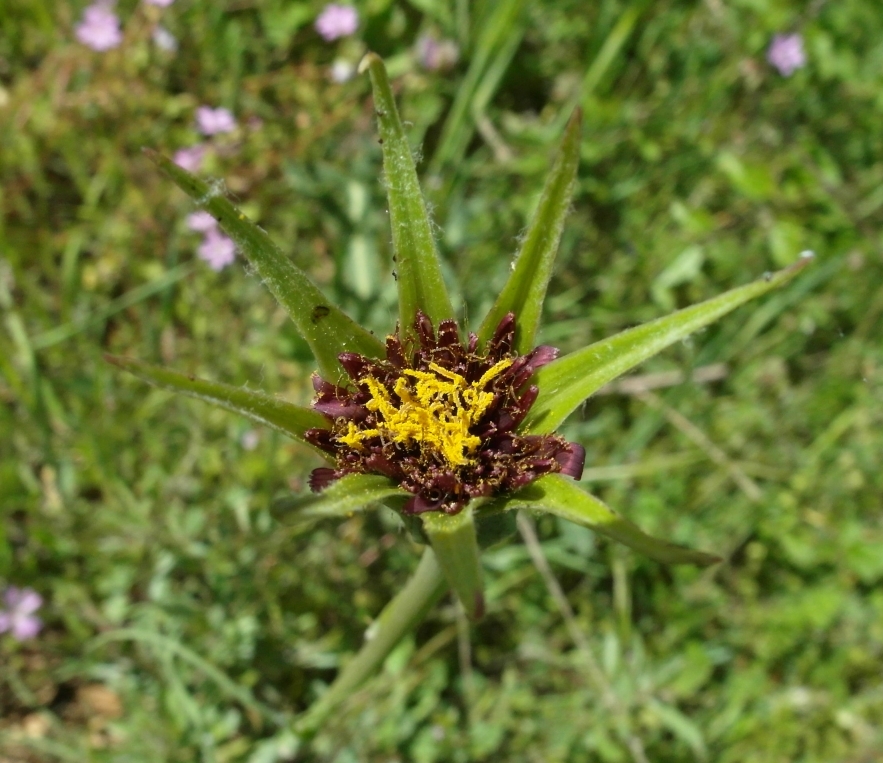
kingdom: Plantae
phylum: Tracheophyta
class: Magnoliopsida
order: Asterales
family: Asteraceae
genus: Tragopogon
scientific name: Tragopogon porrifolius
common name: Salsify
